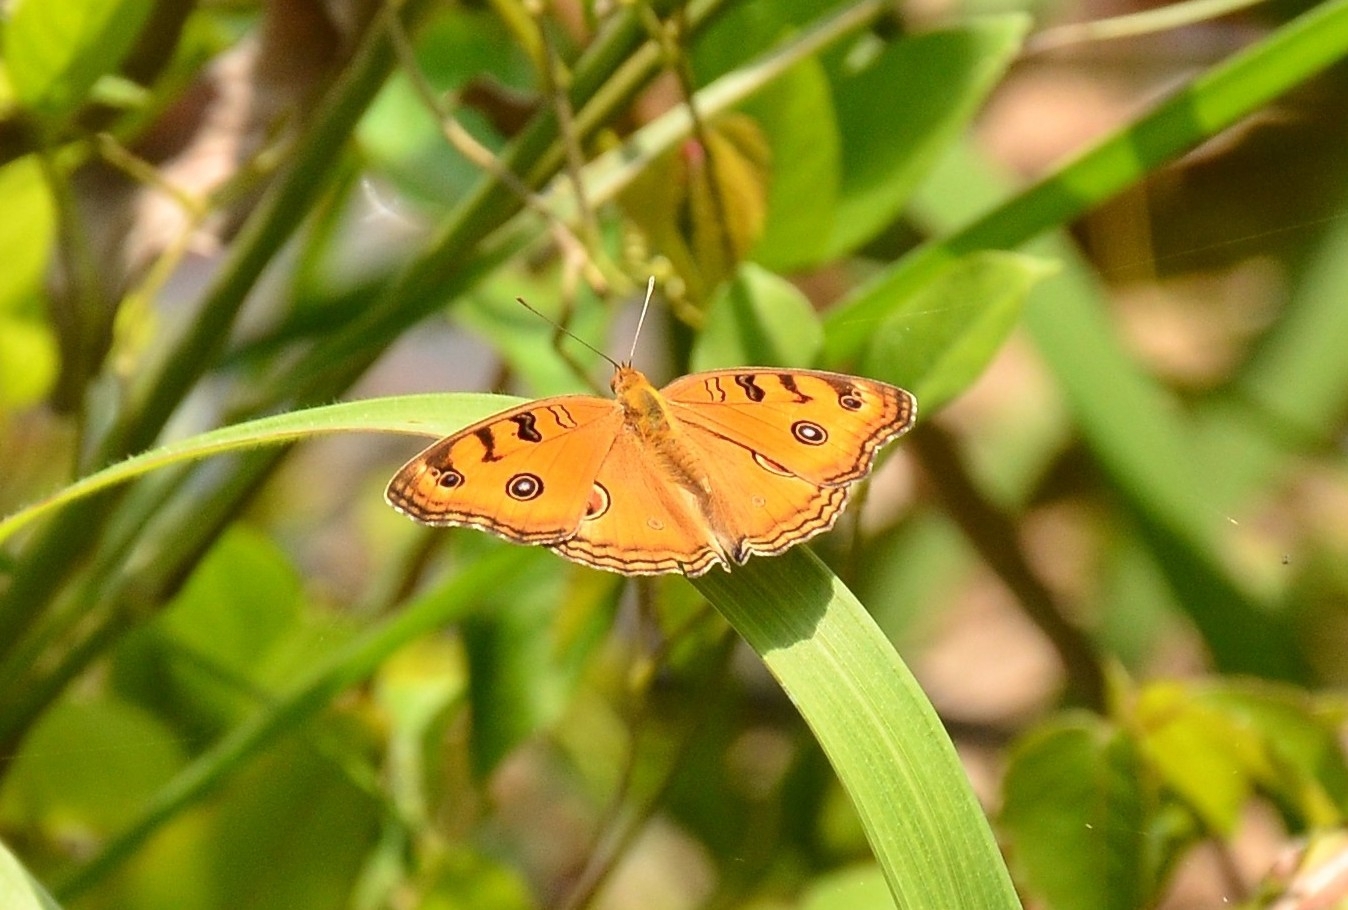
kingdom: Animalia
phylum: Arthropoda
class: Insecta
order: Lepidoptera
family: Nymphalidae
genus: Junonia
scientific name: Junonia almana
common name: Peacock pansy
